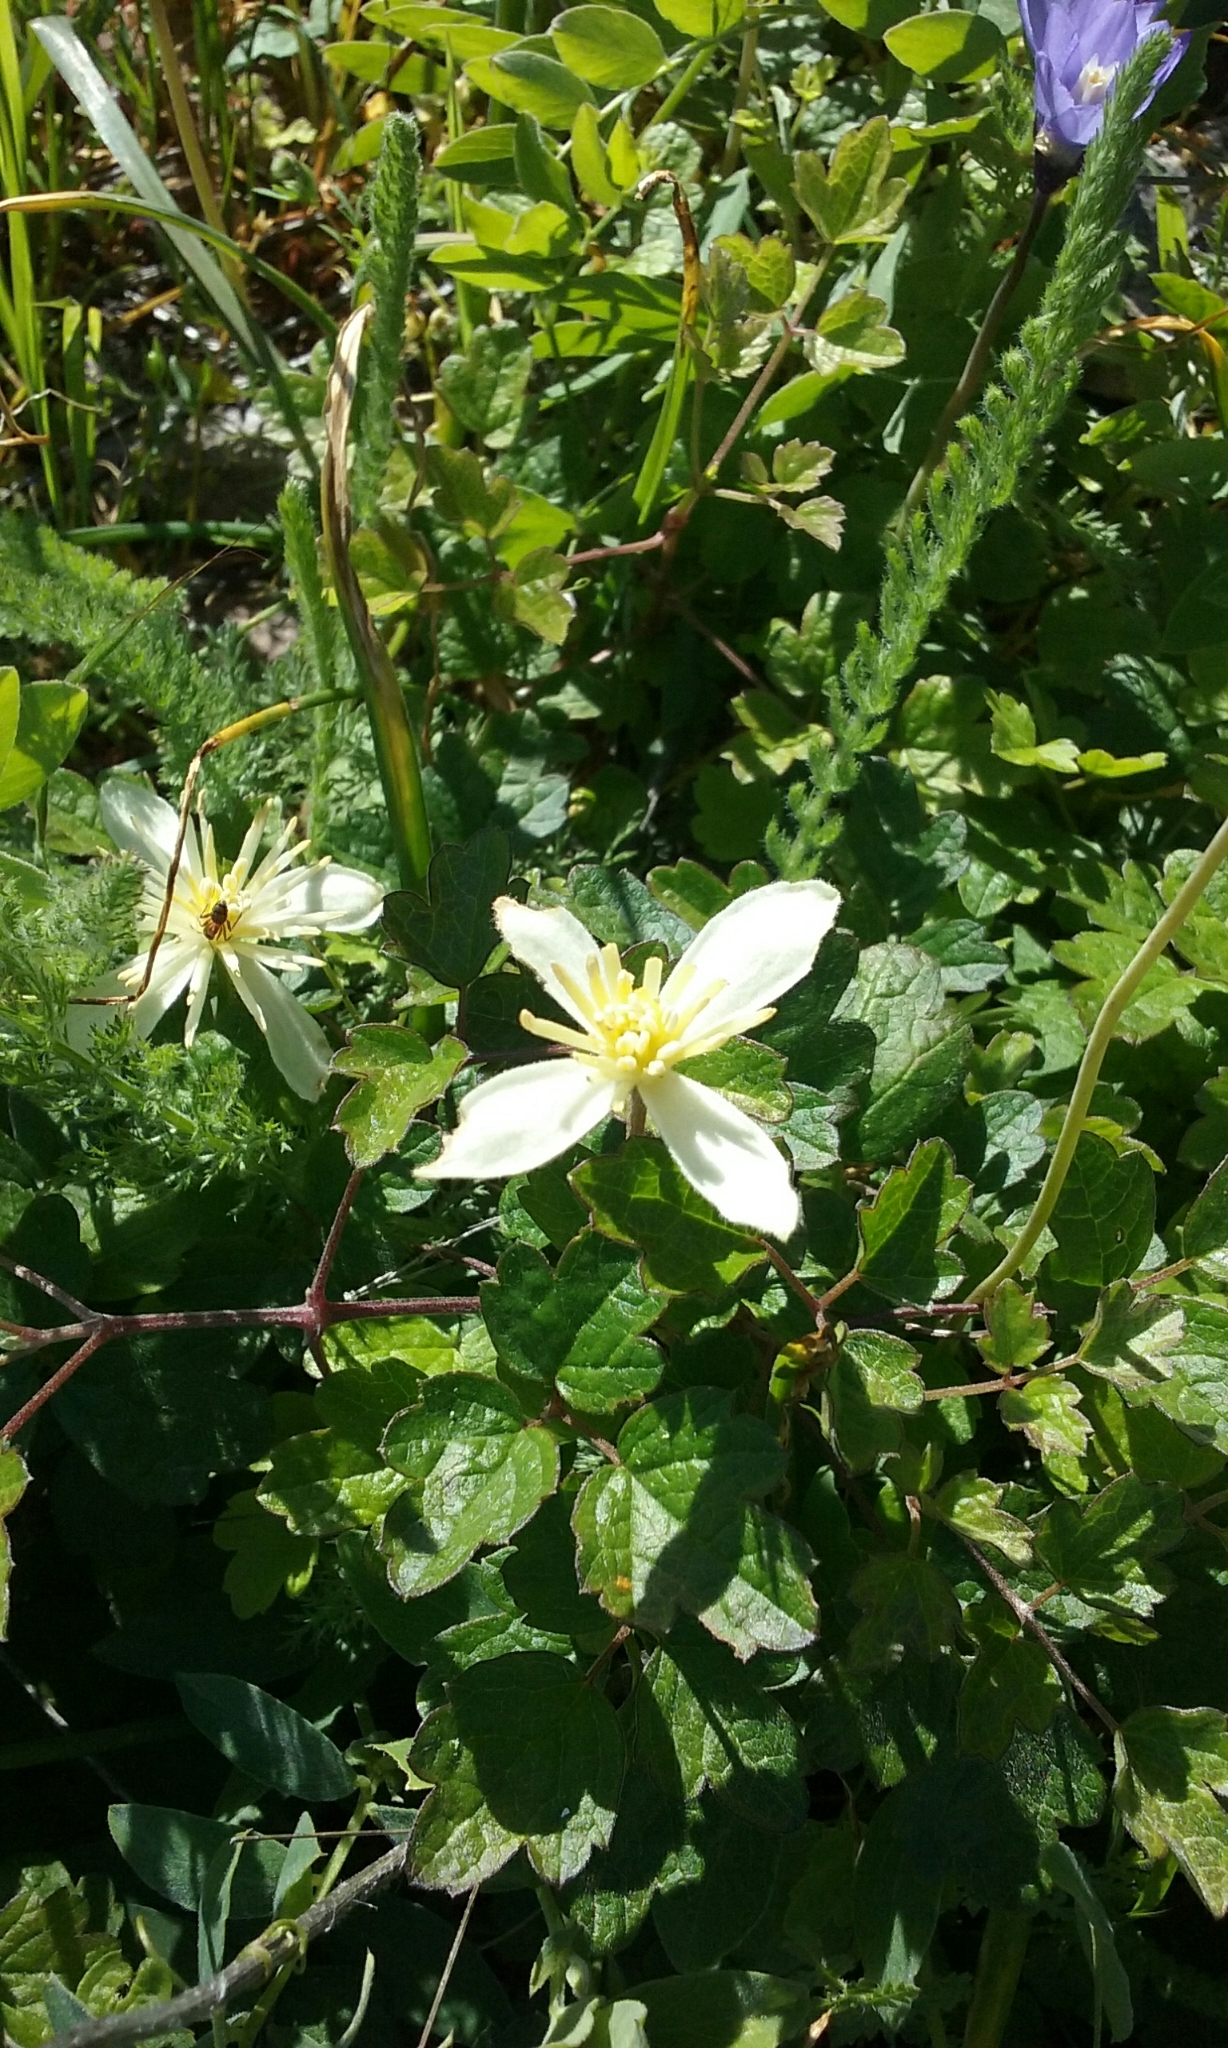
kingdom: Plantae
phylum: Tracheophyta
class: Magnoliopsida
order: Ranunculales
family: Ranunculaceae
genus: Clematis
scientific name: Clematis lasiantha
